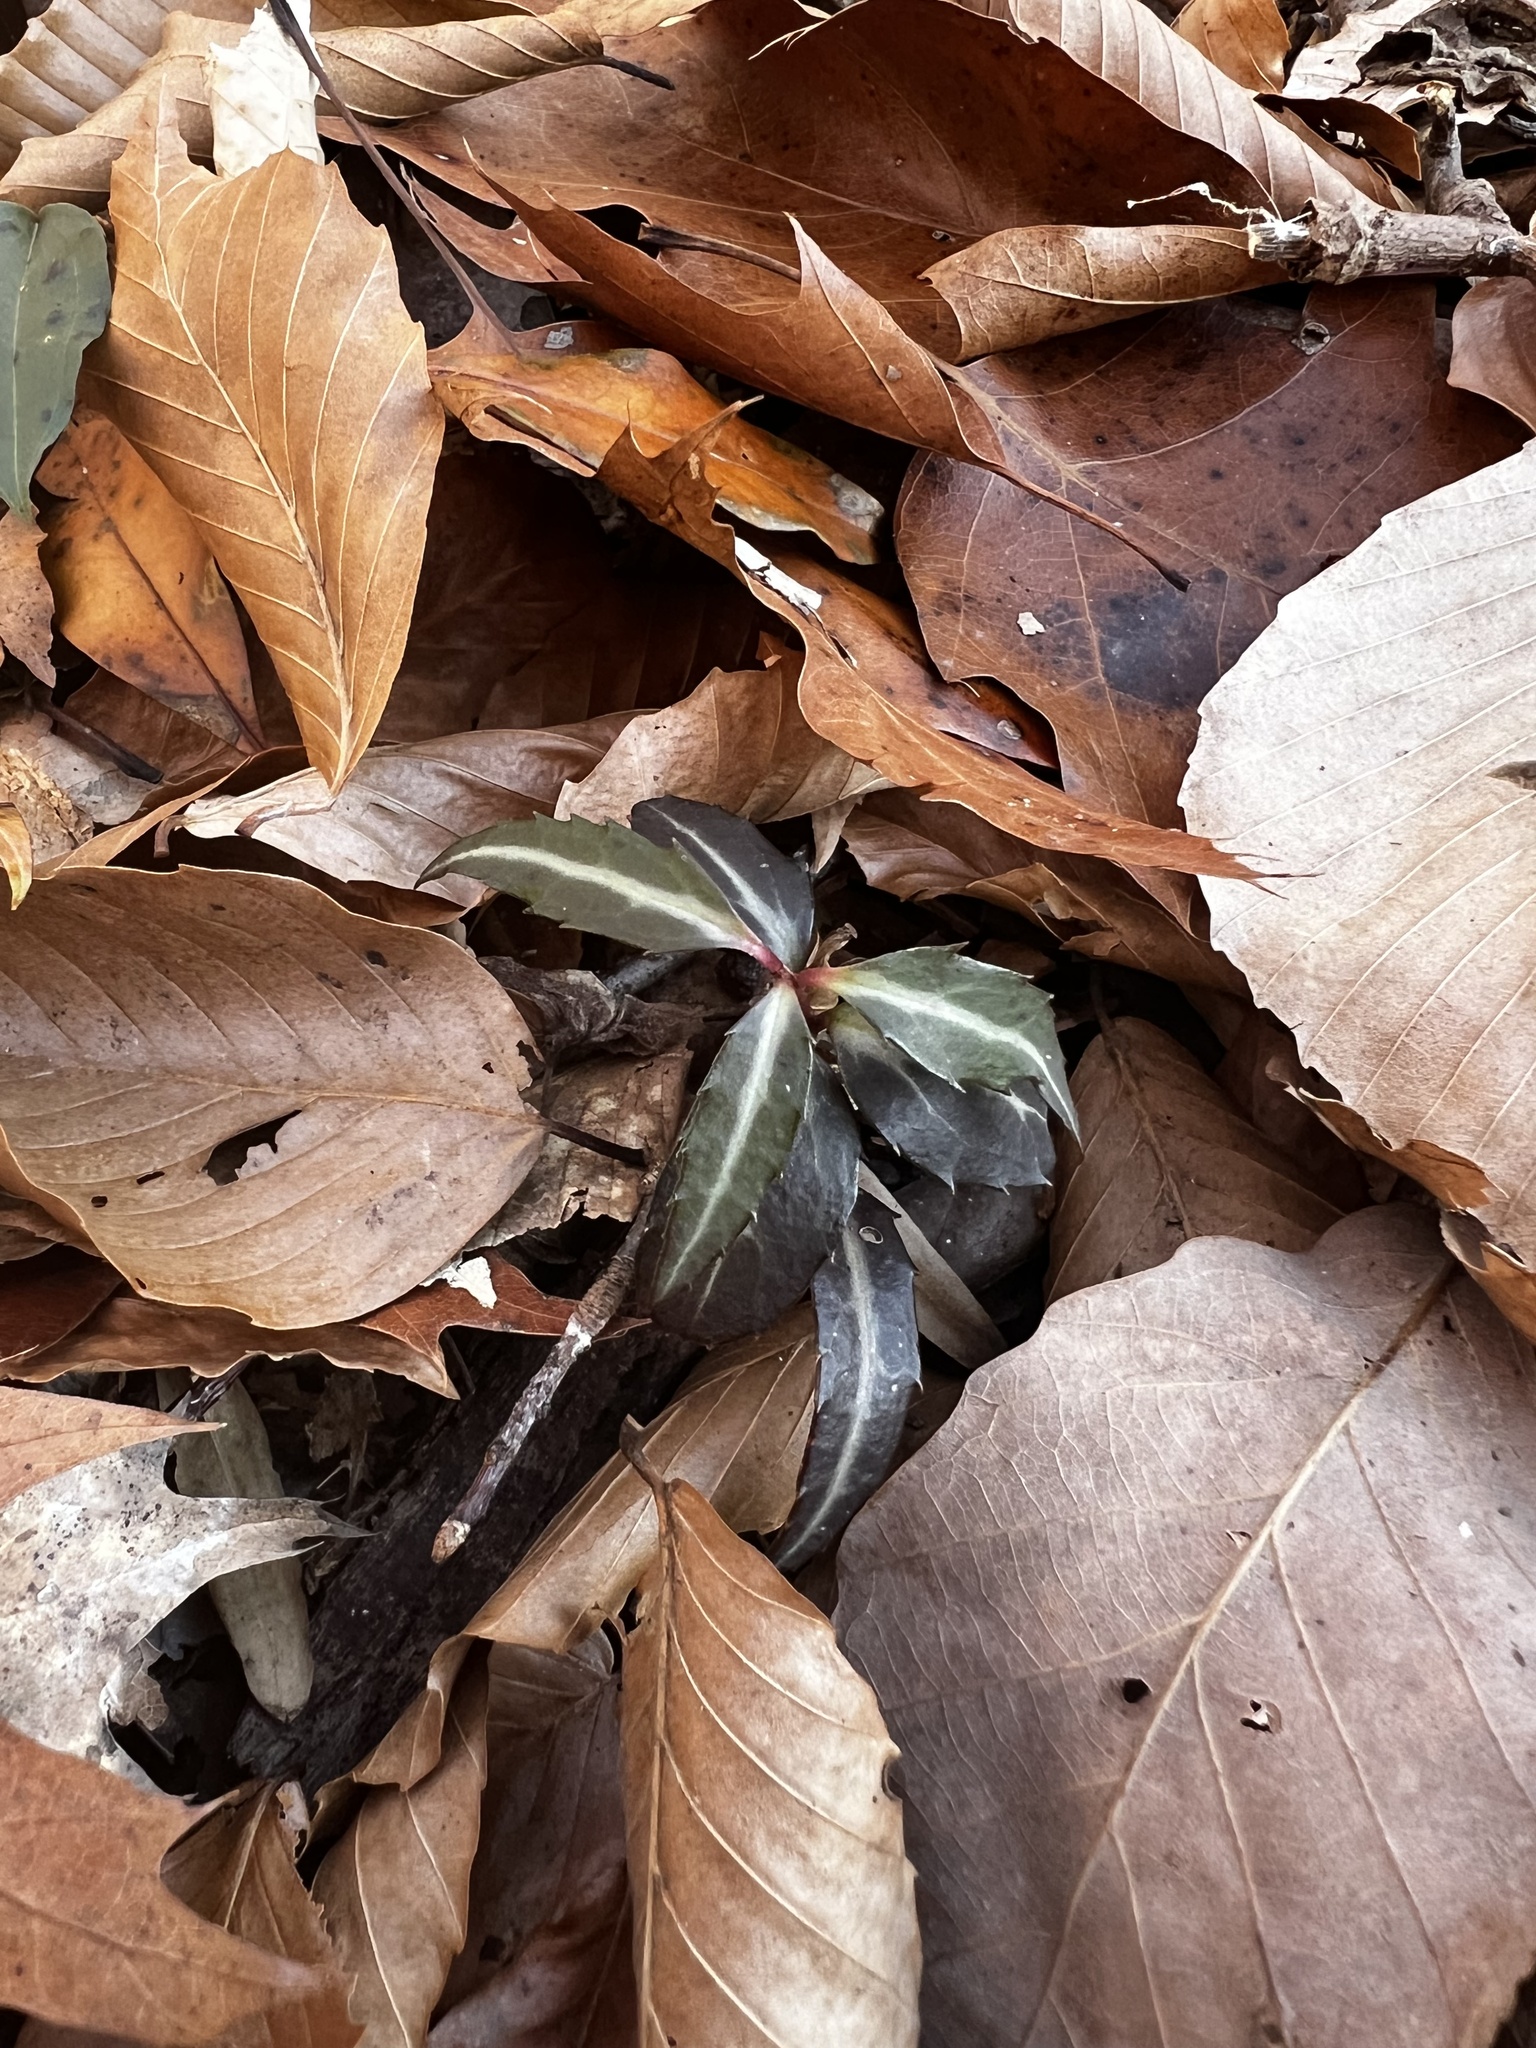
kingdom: Plantae
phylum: Tracheophyta
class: Magnoliopsida
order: Ericales
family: Ericaceae
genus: Chimaphila
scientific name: Chimaphila maculata
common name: Spotted pipsissewa
